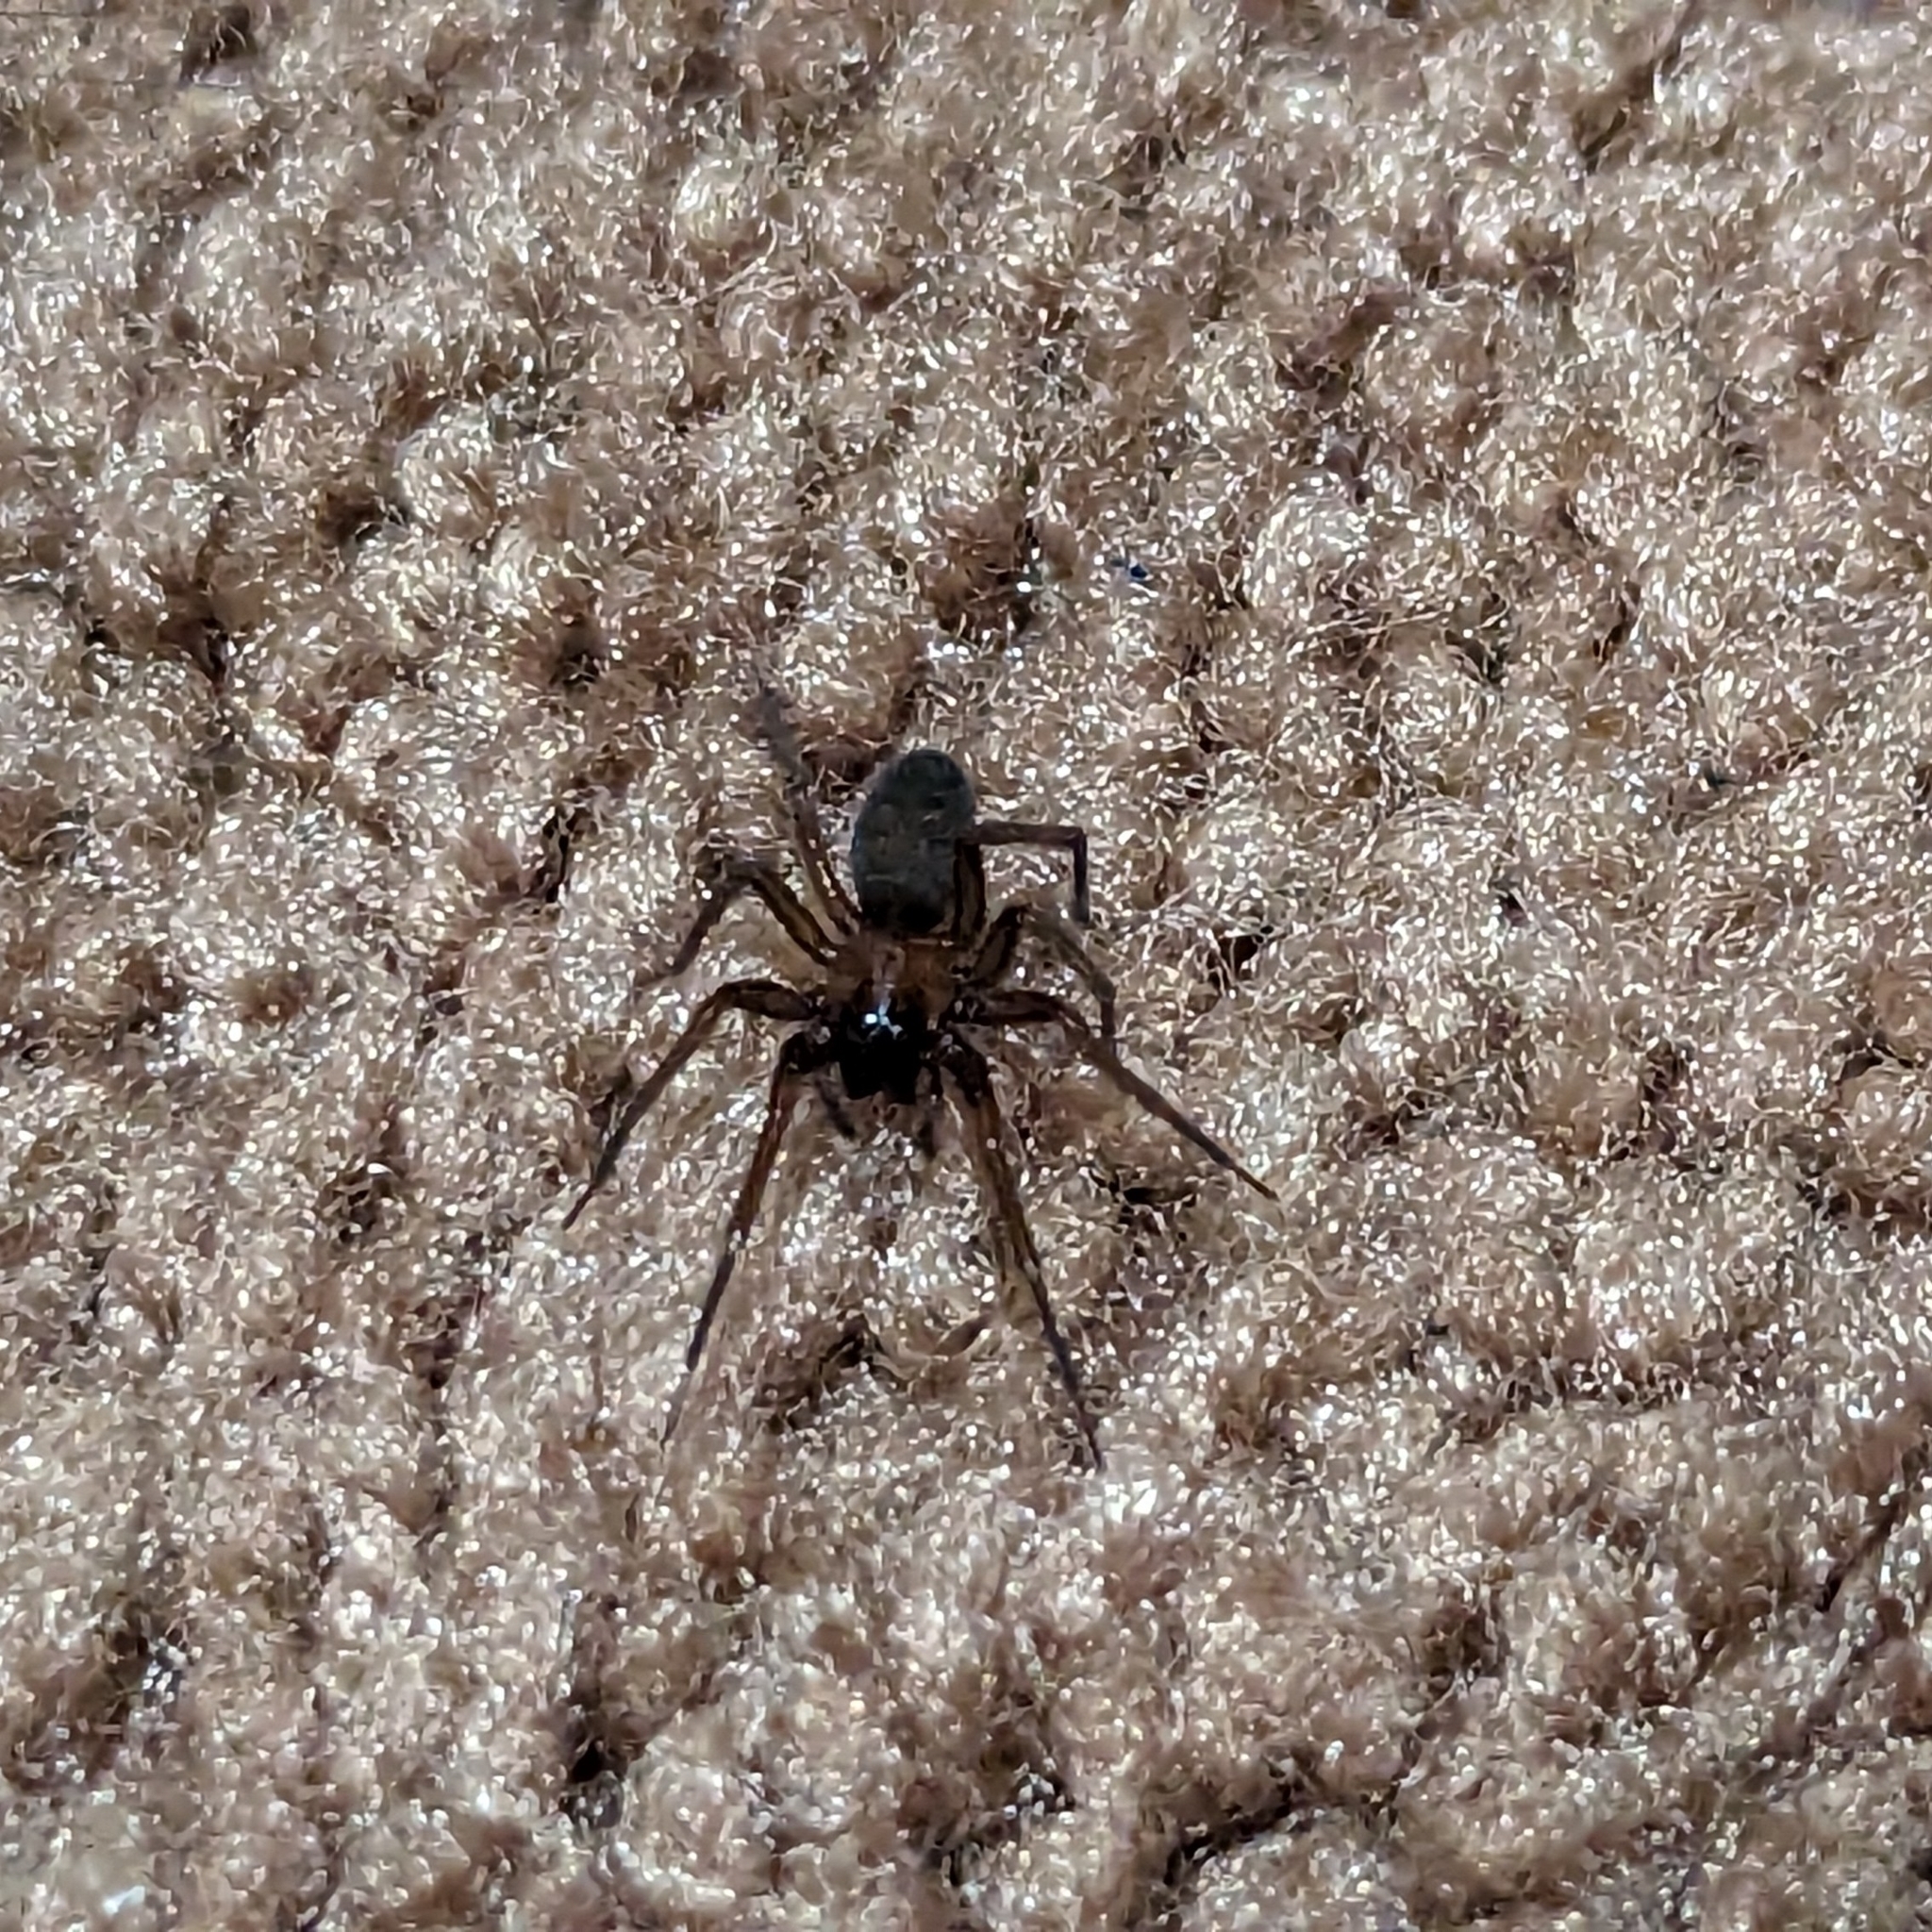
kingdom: Animalia
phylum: Arthropoda
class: Arachnida
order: Araneae
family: Desidae
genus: Metaltella
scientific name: Metaltella simoni
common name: Cribellate spider
